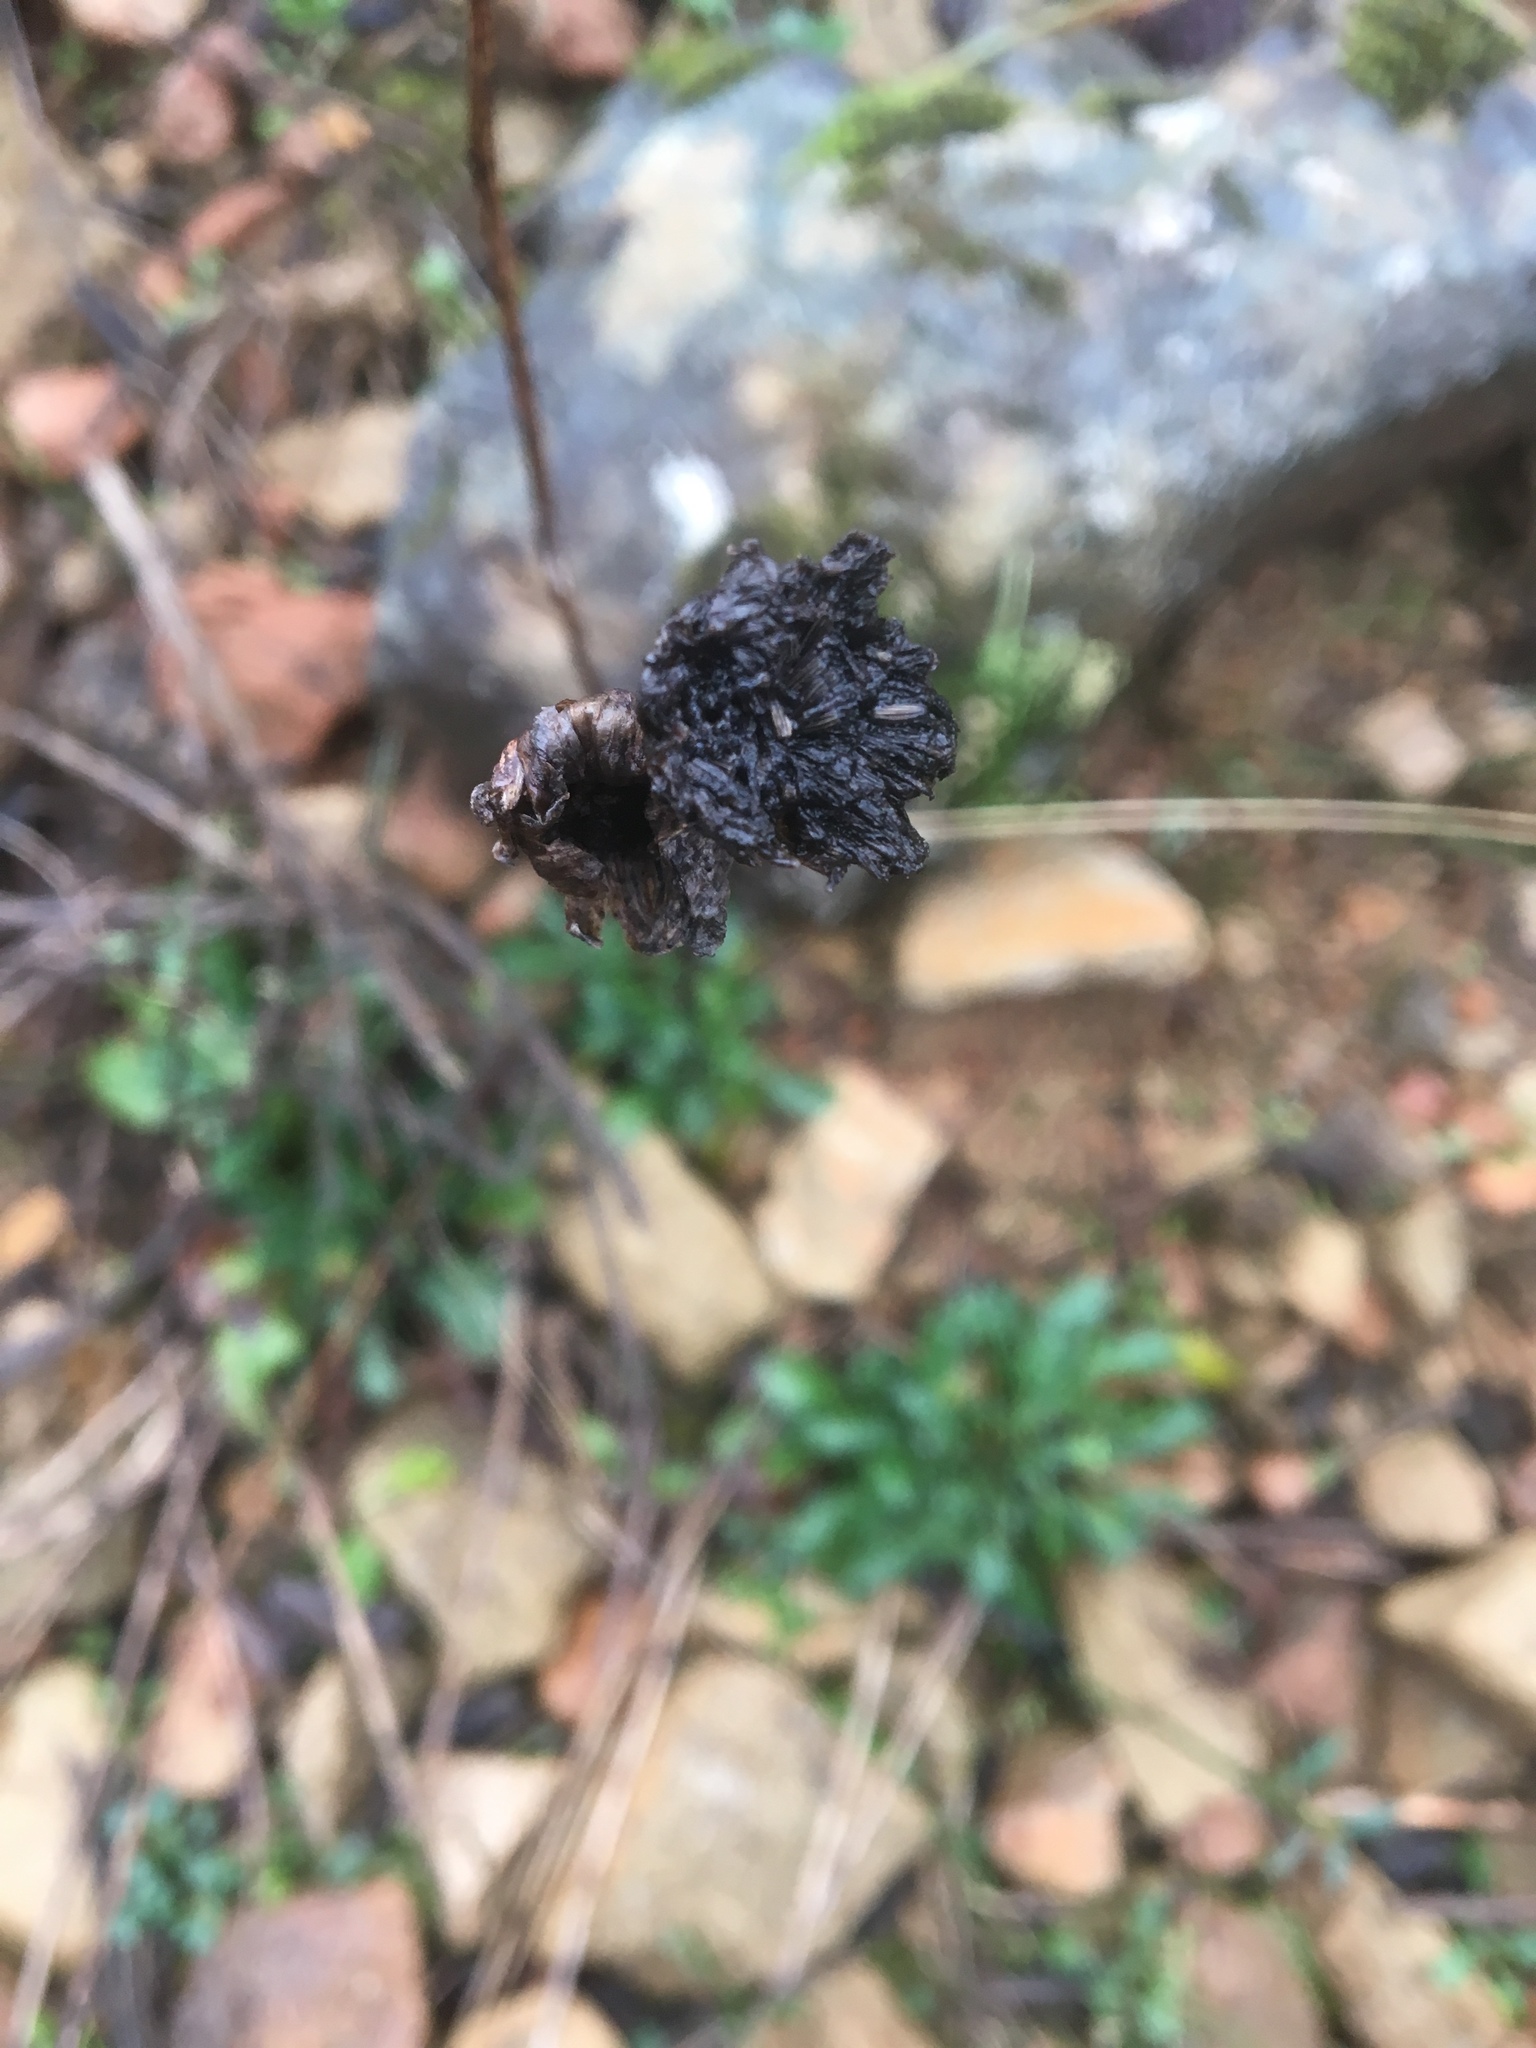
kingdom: Plantae
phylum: Tracheophyta
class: Magnoliopsida
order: Asterales
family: Asteraceae
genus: Leucanthemum
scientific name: Leucanthemum vulgare
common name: Oxeye daisy
